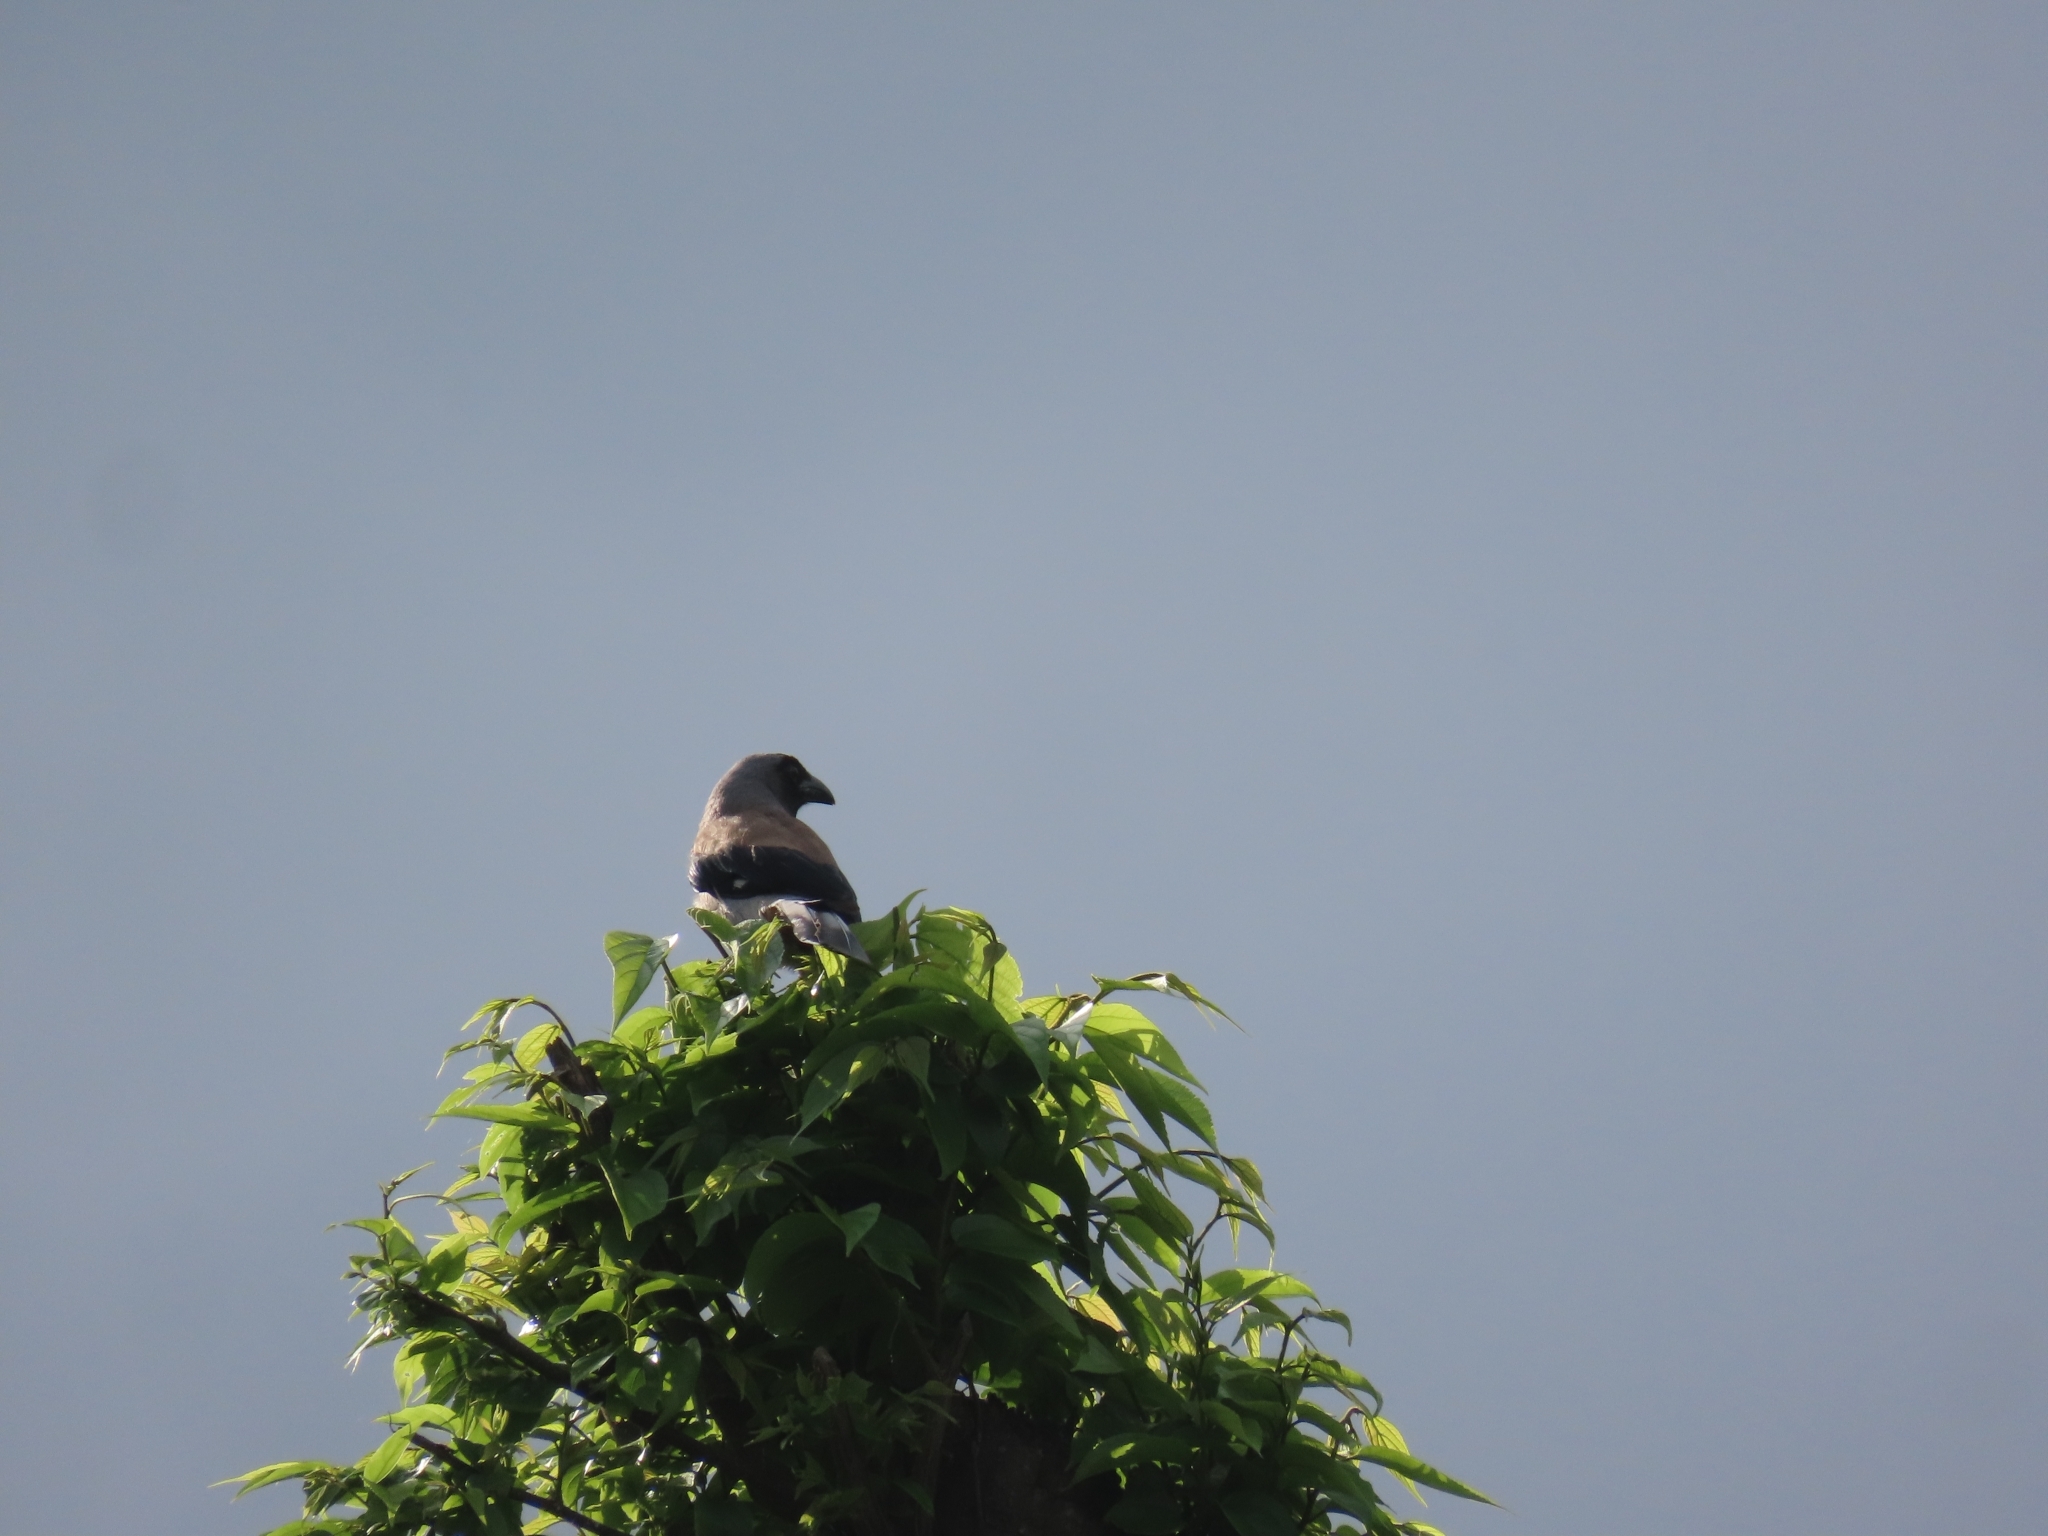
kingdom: Animalia
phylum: Chordata
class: Aves
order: Passeriformes
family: Corvidae
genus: Dendrocitta
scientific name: Dendrocitta formosae
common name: Grey treepie
